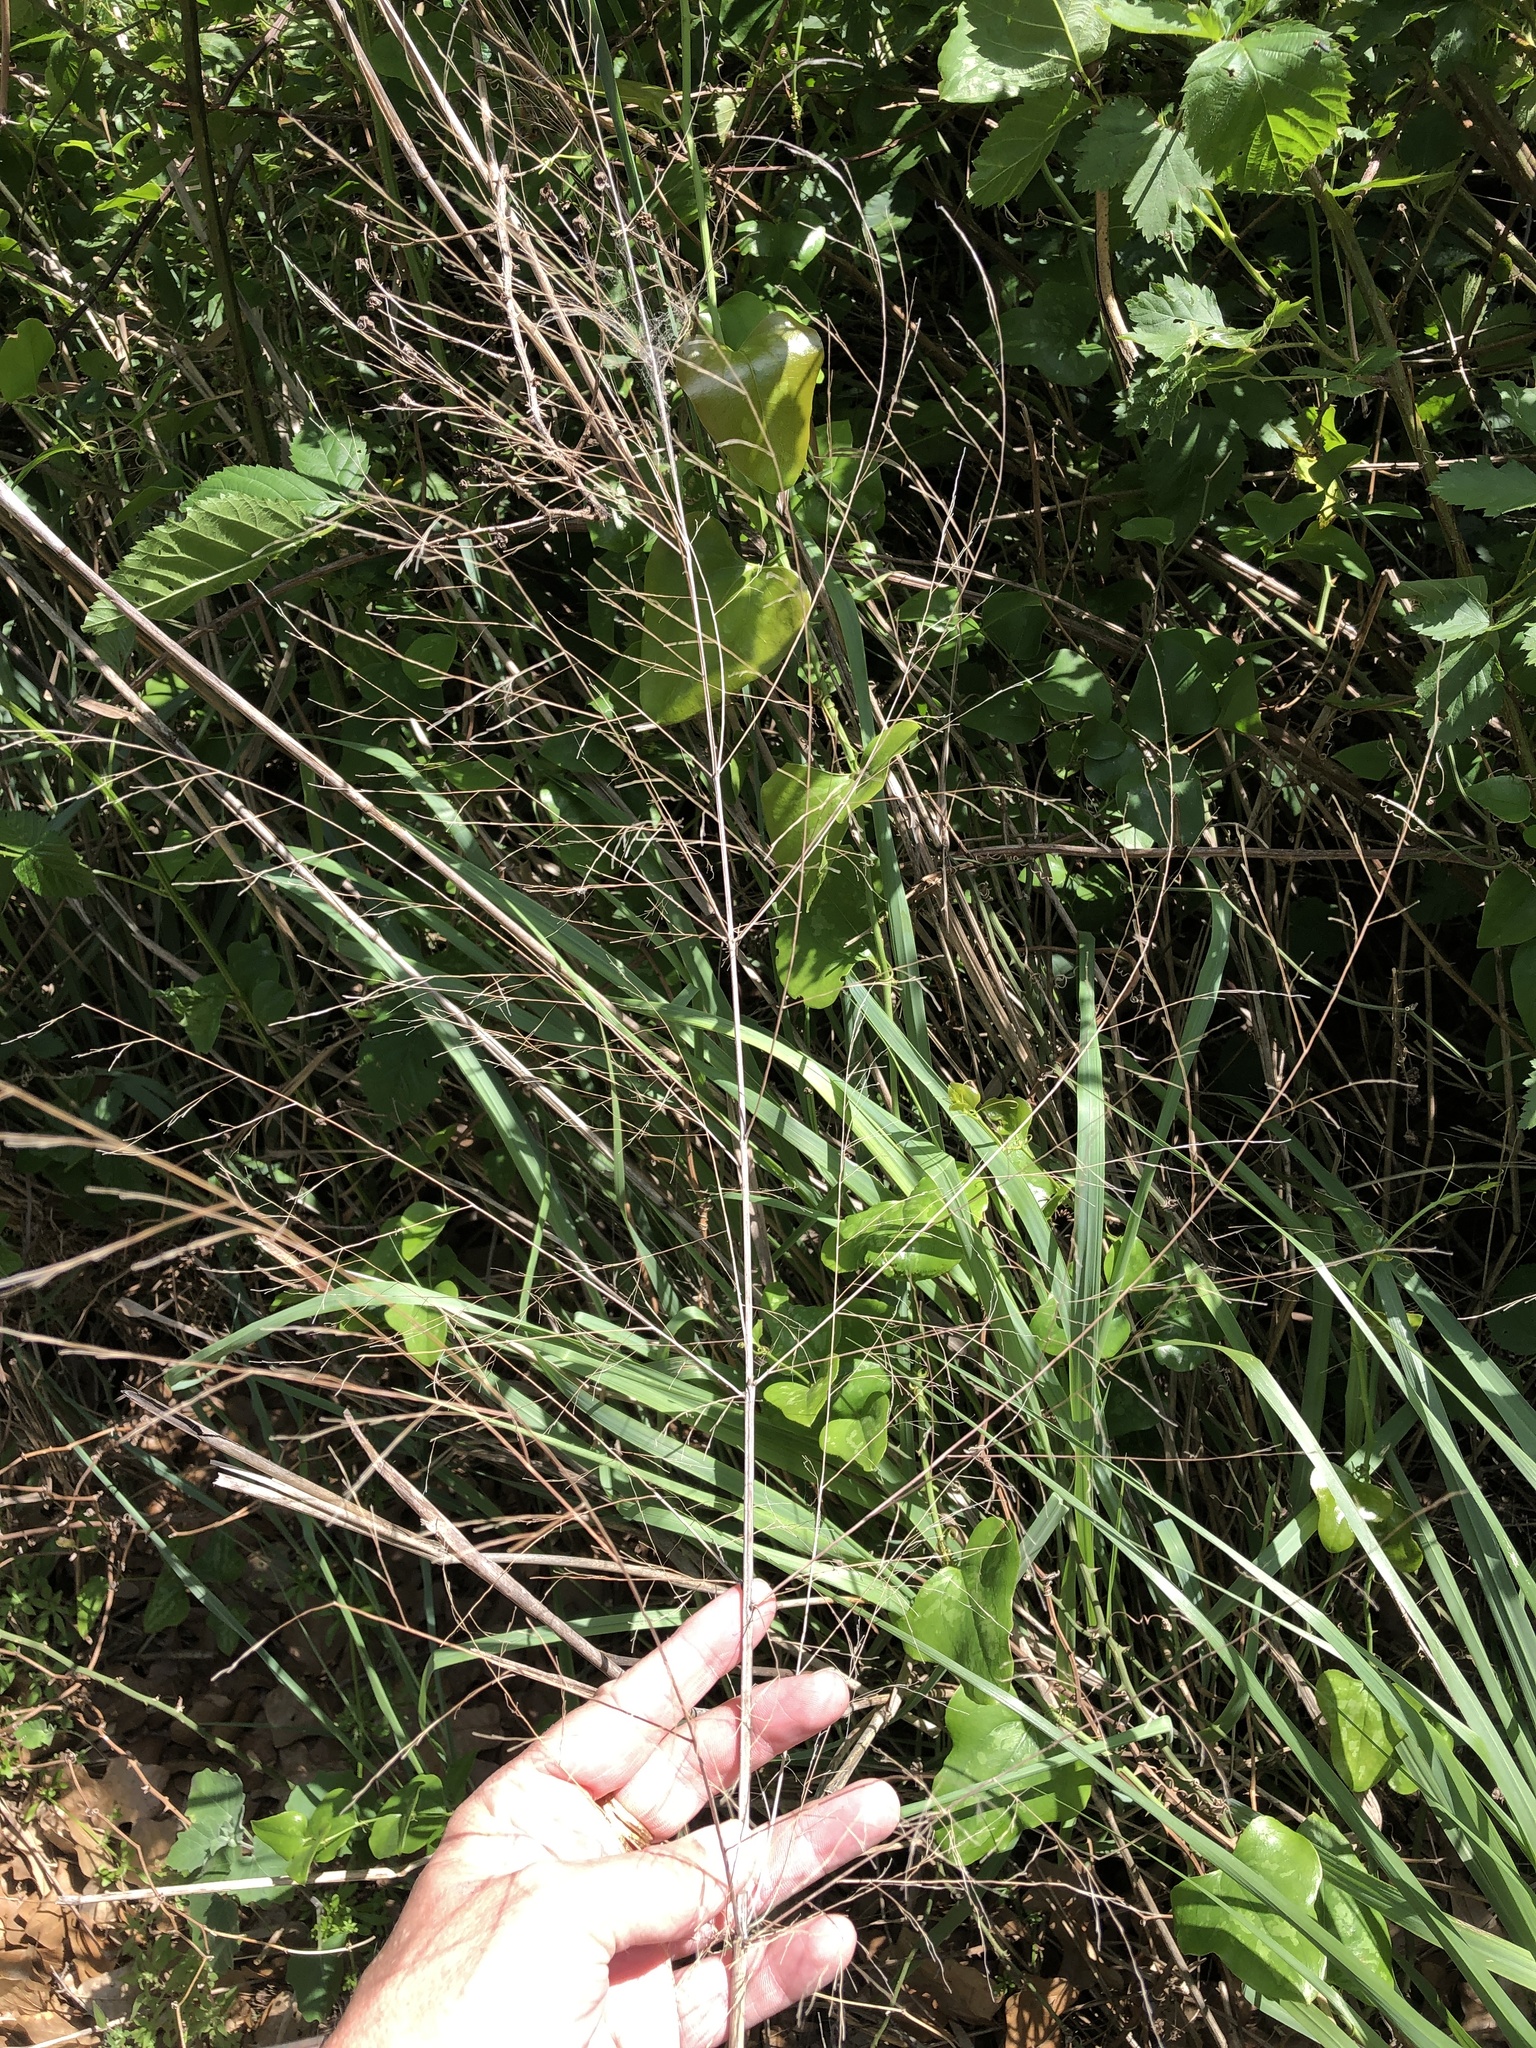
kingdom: Plantae
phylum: Tracheophyta
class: Liliopsida
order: Poales
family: Poaceae
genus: Panicum
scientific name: Panicum virgatum
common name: Switchgrass
